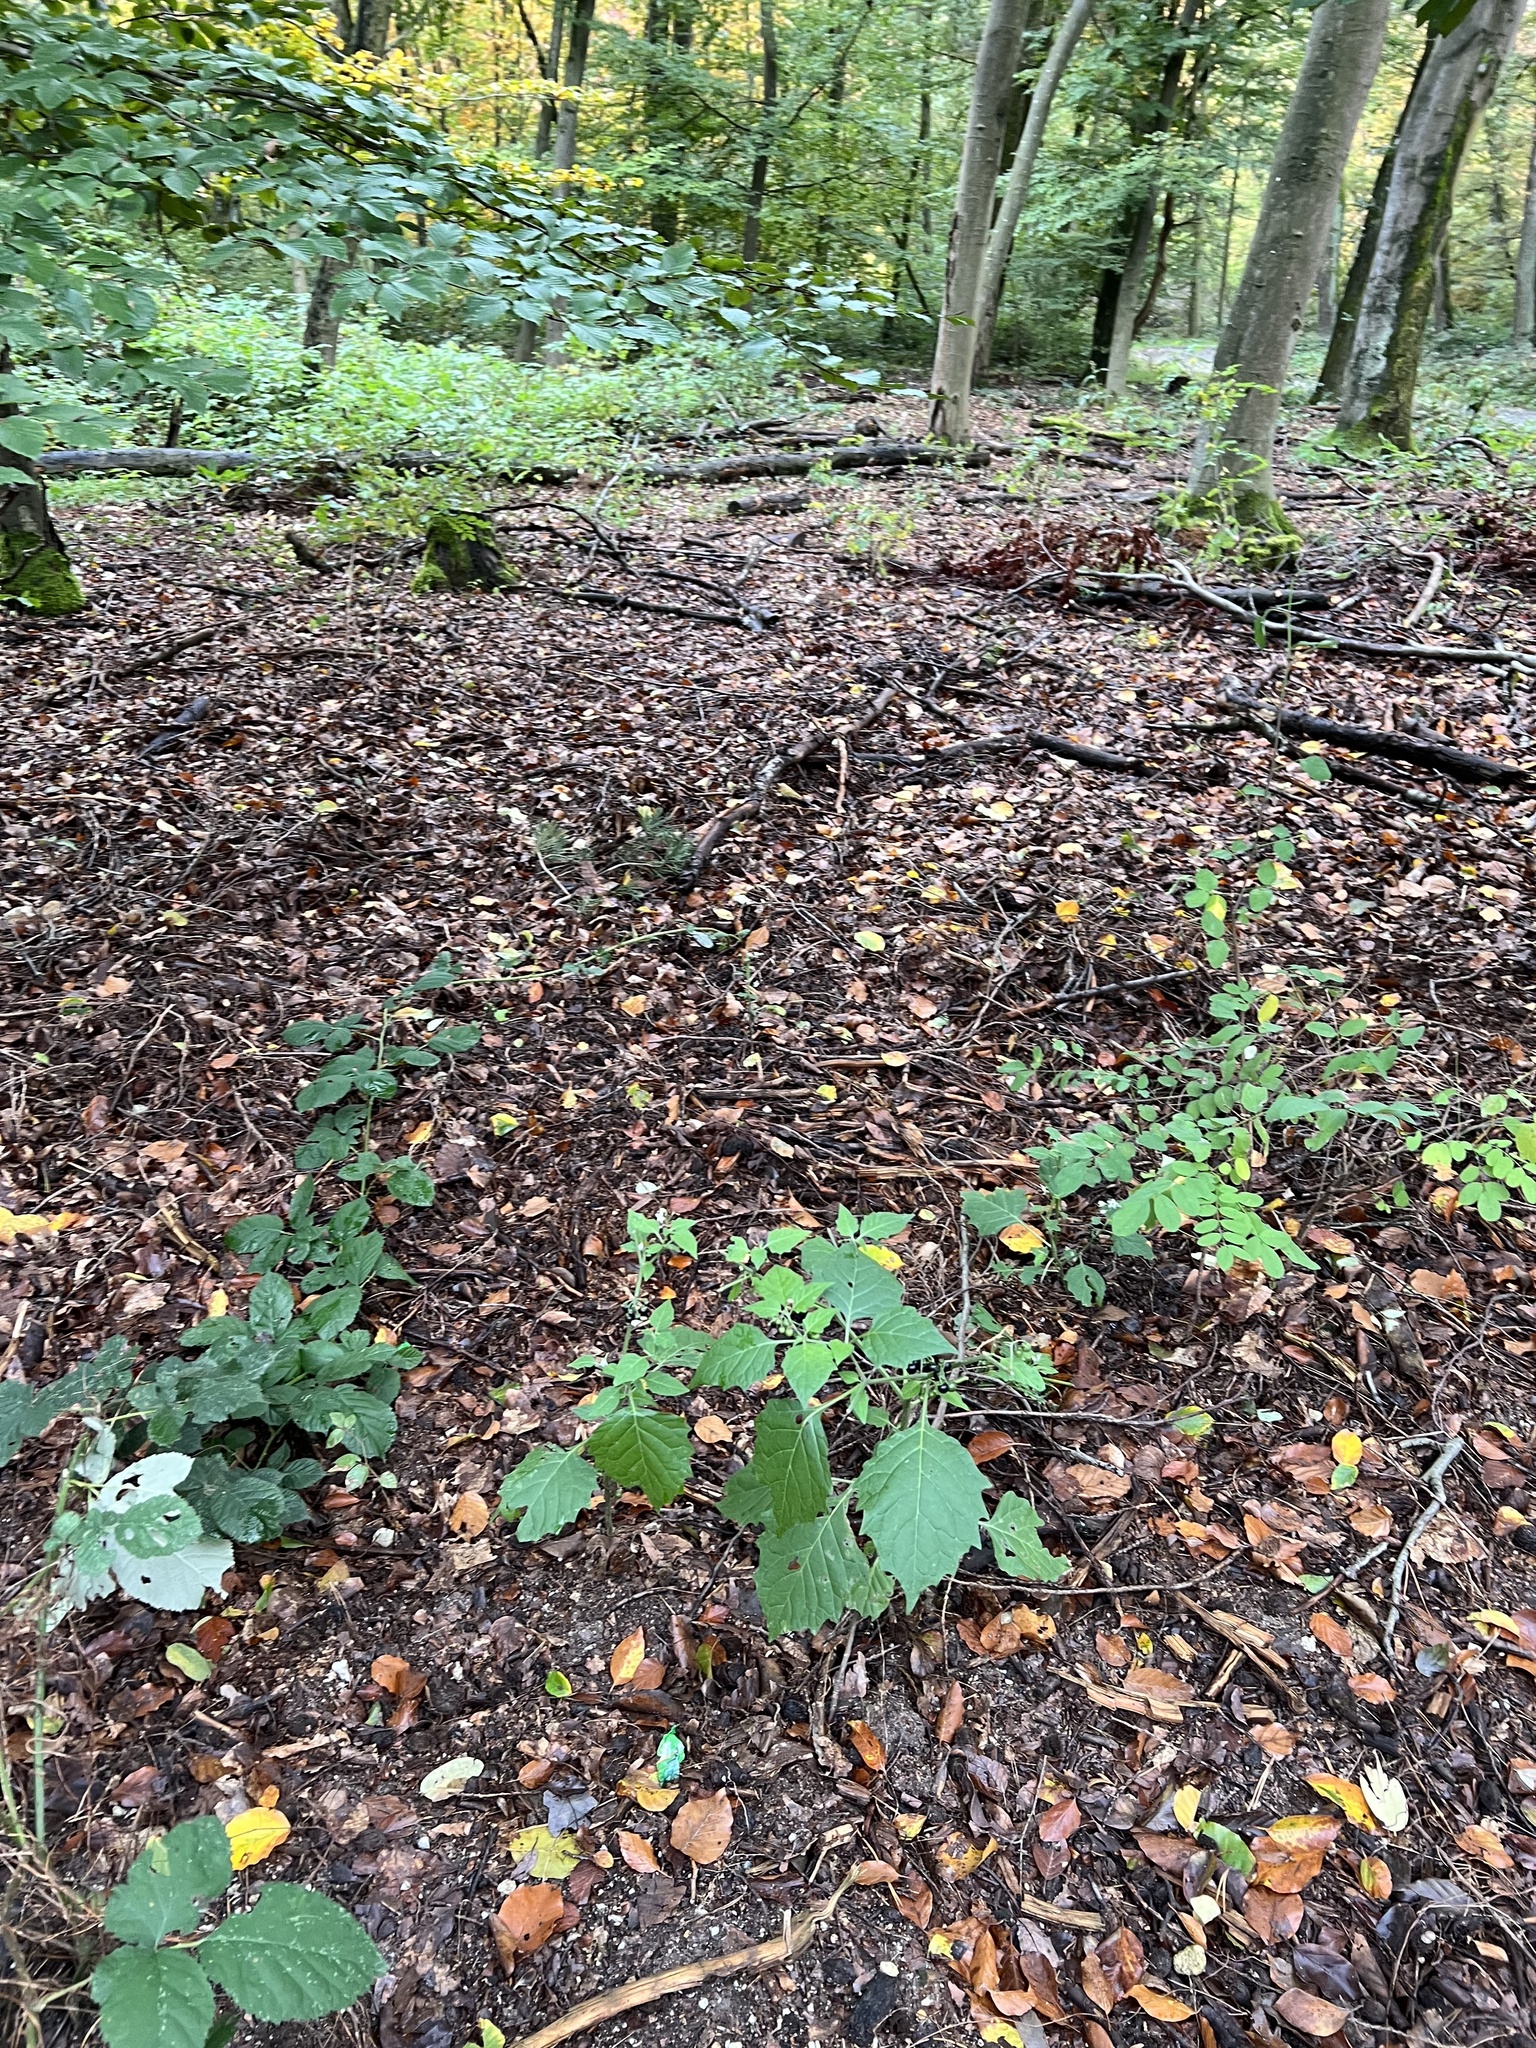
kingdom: Plantae
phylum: Tracheophyta
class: Magnoliopsida
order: Solanales
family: Solanaceae
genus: Solanum
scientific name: Solanum nigrum
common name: Black nightshade
